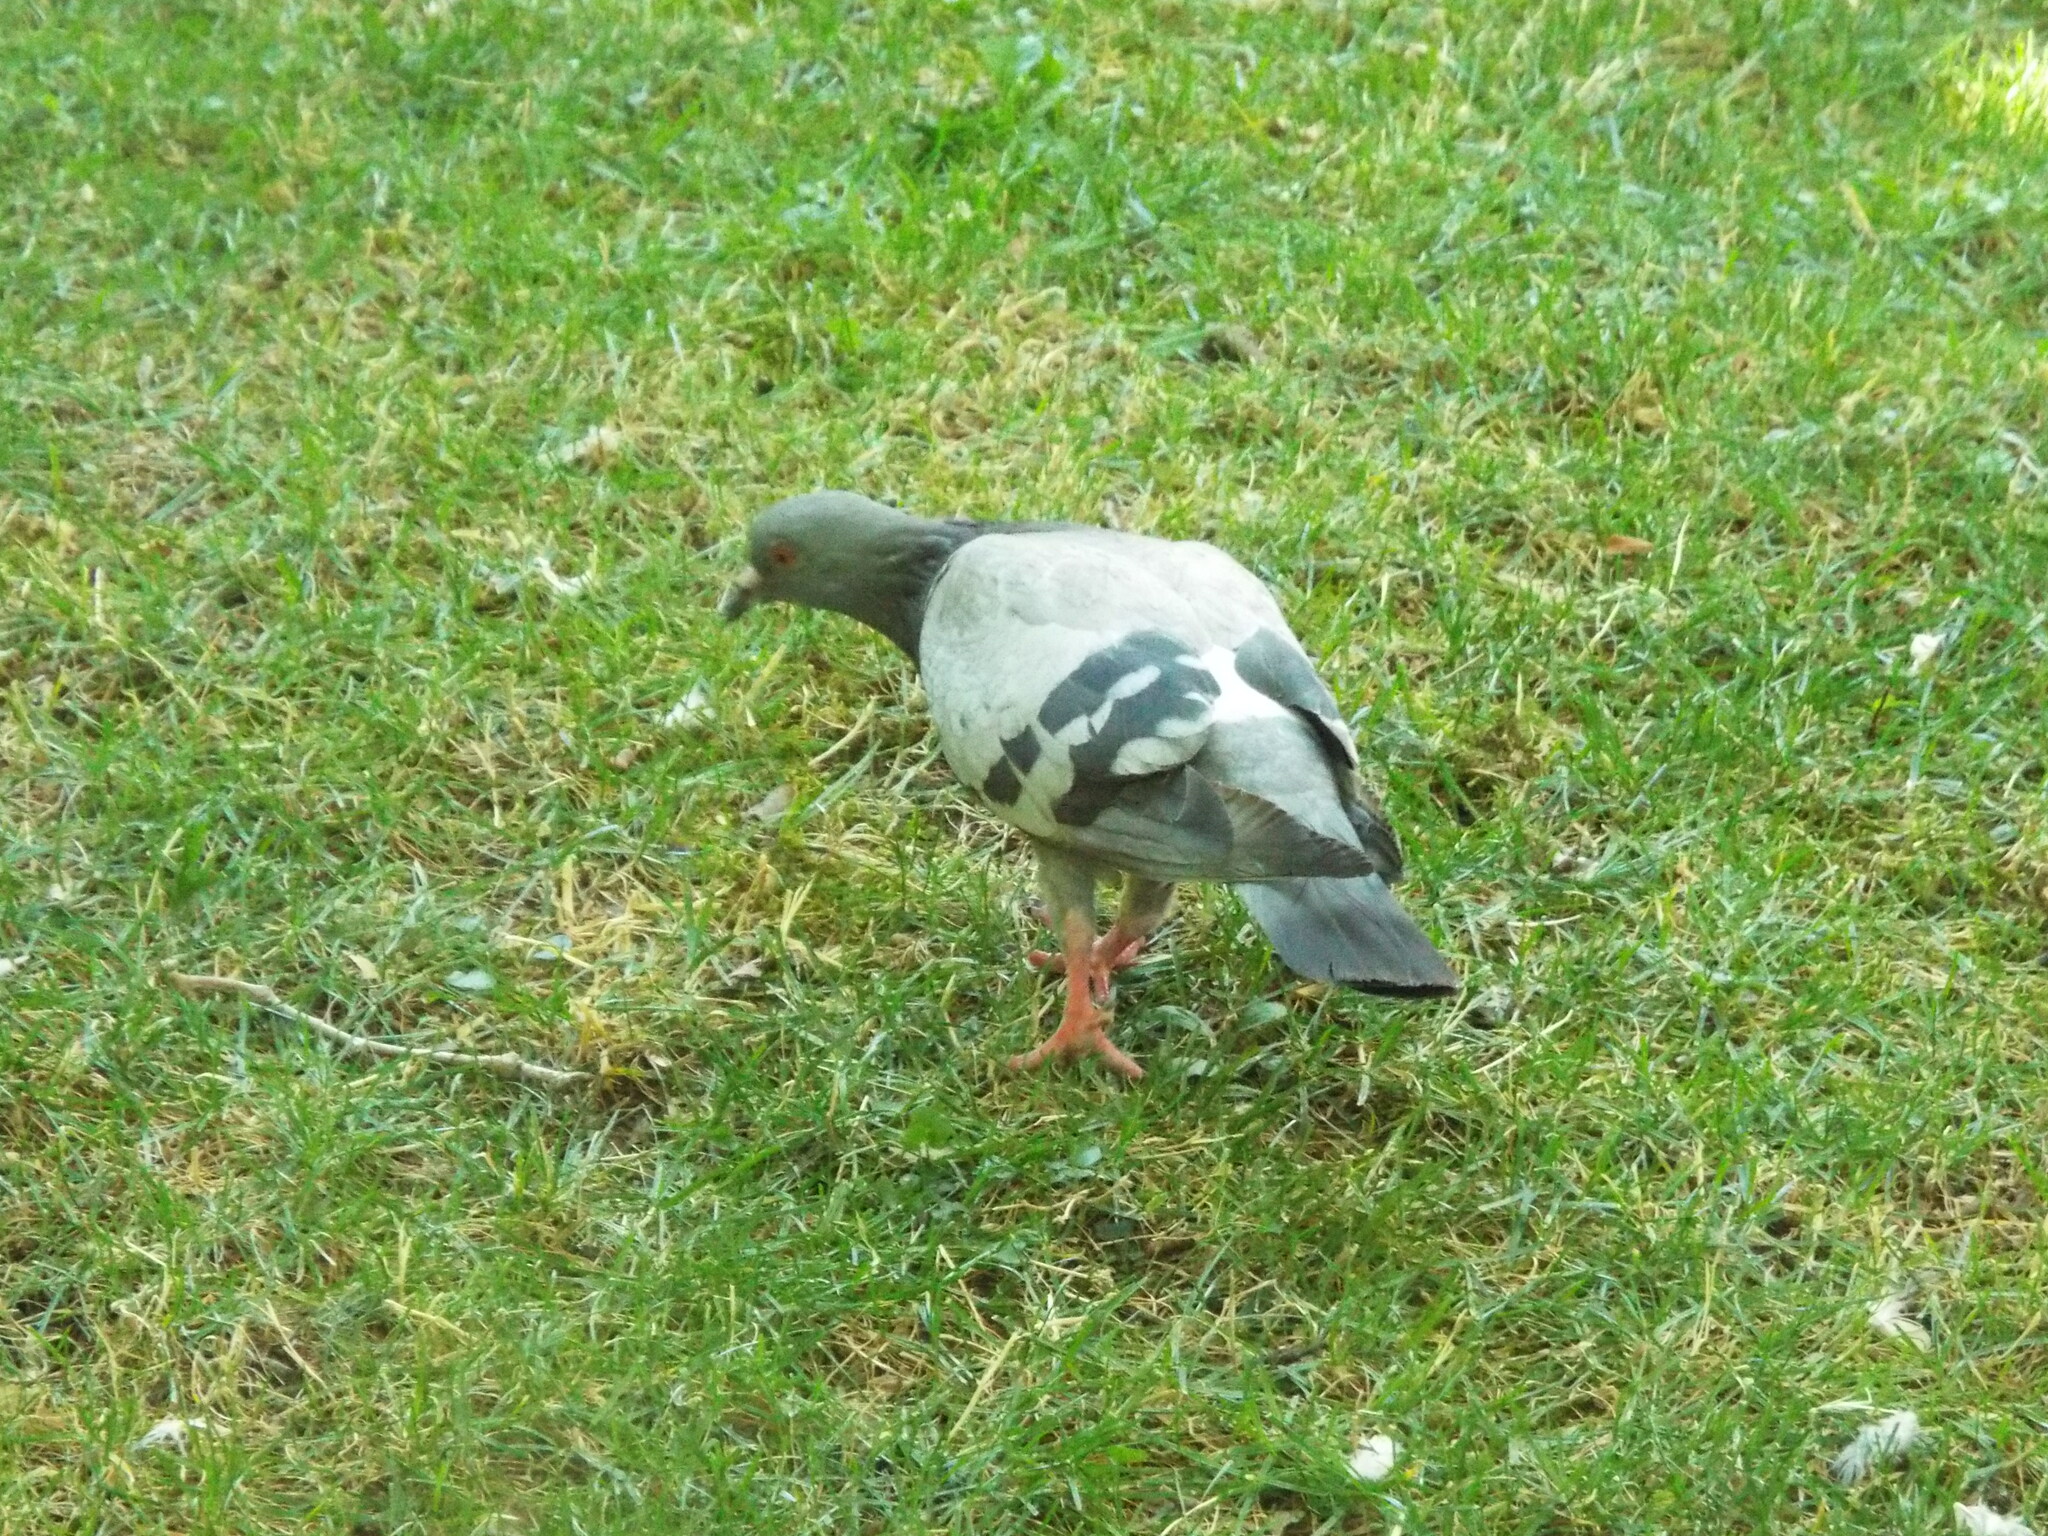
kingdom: Animalia
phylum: Chordata
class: Aves
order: Columbiformes
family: Columbidae
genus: Columba
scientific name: Columba livia
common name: Rock pigeon
